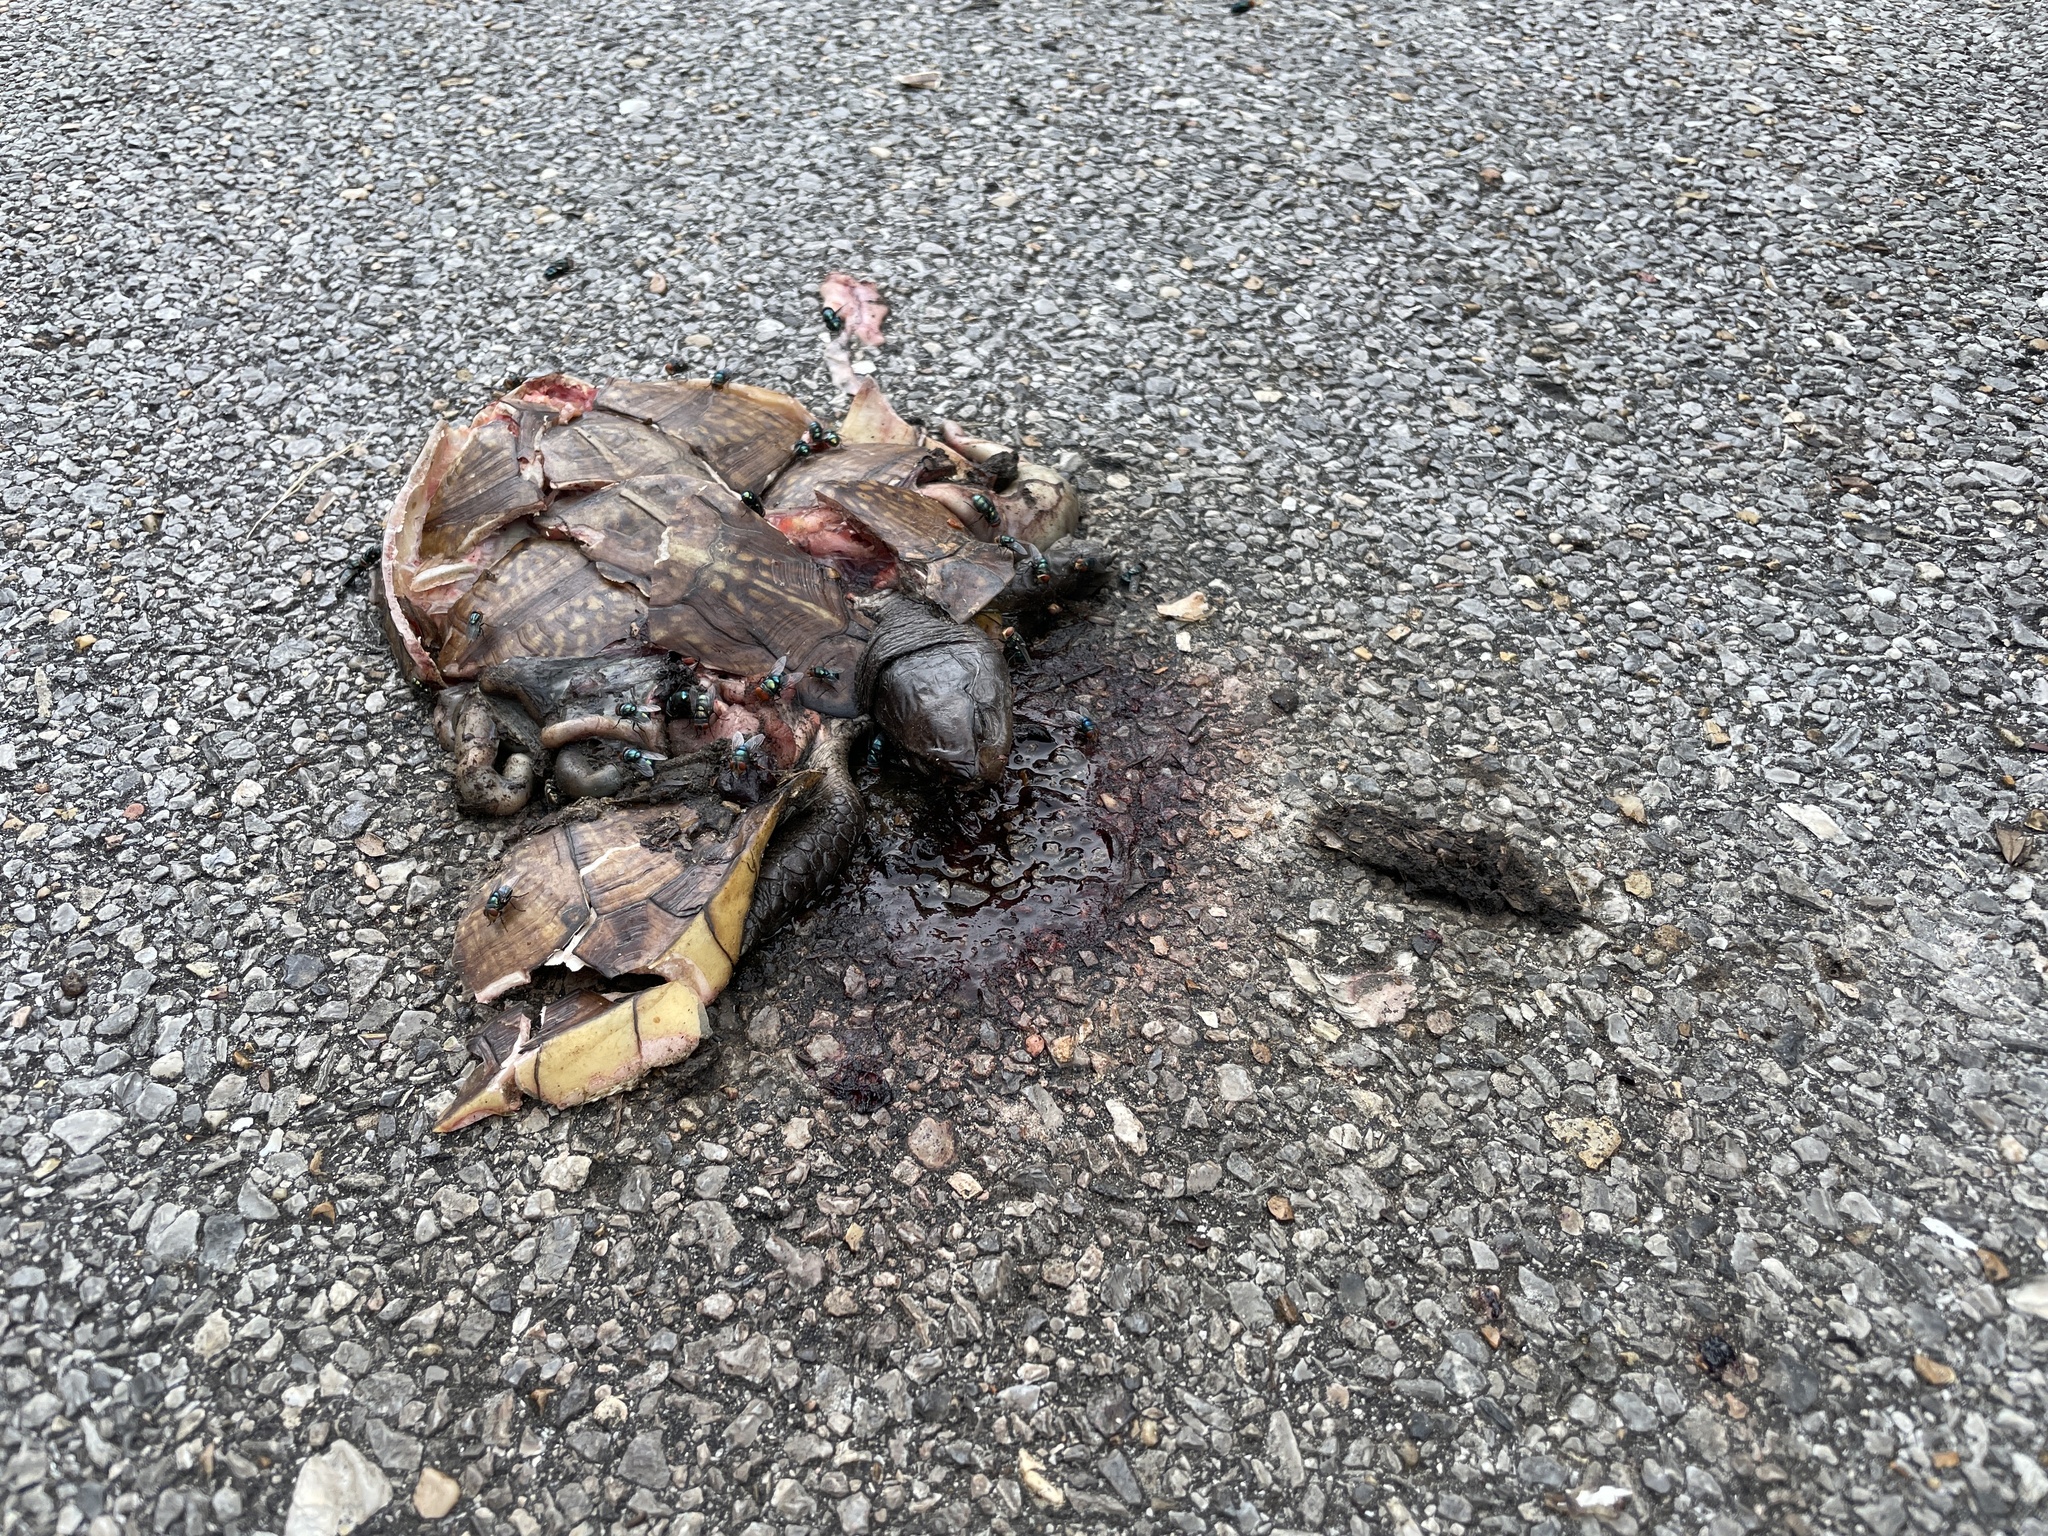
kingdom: Animalia
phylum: Chordata
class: Testudines
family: Emydidae
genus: Terrapene
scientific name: Terrapene carolina
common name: Common box turtle
